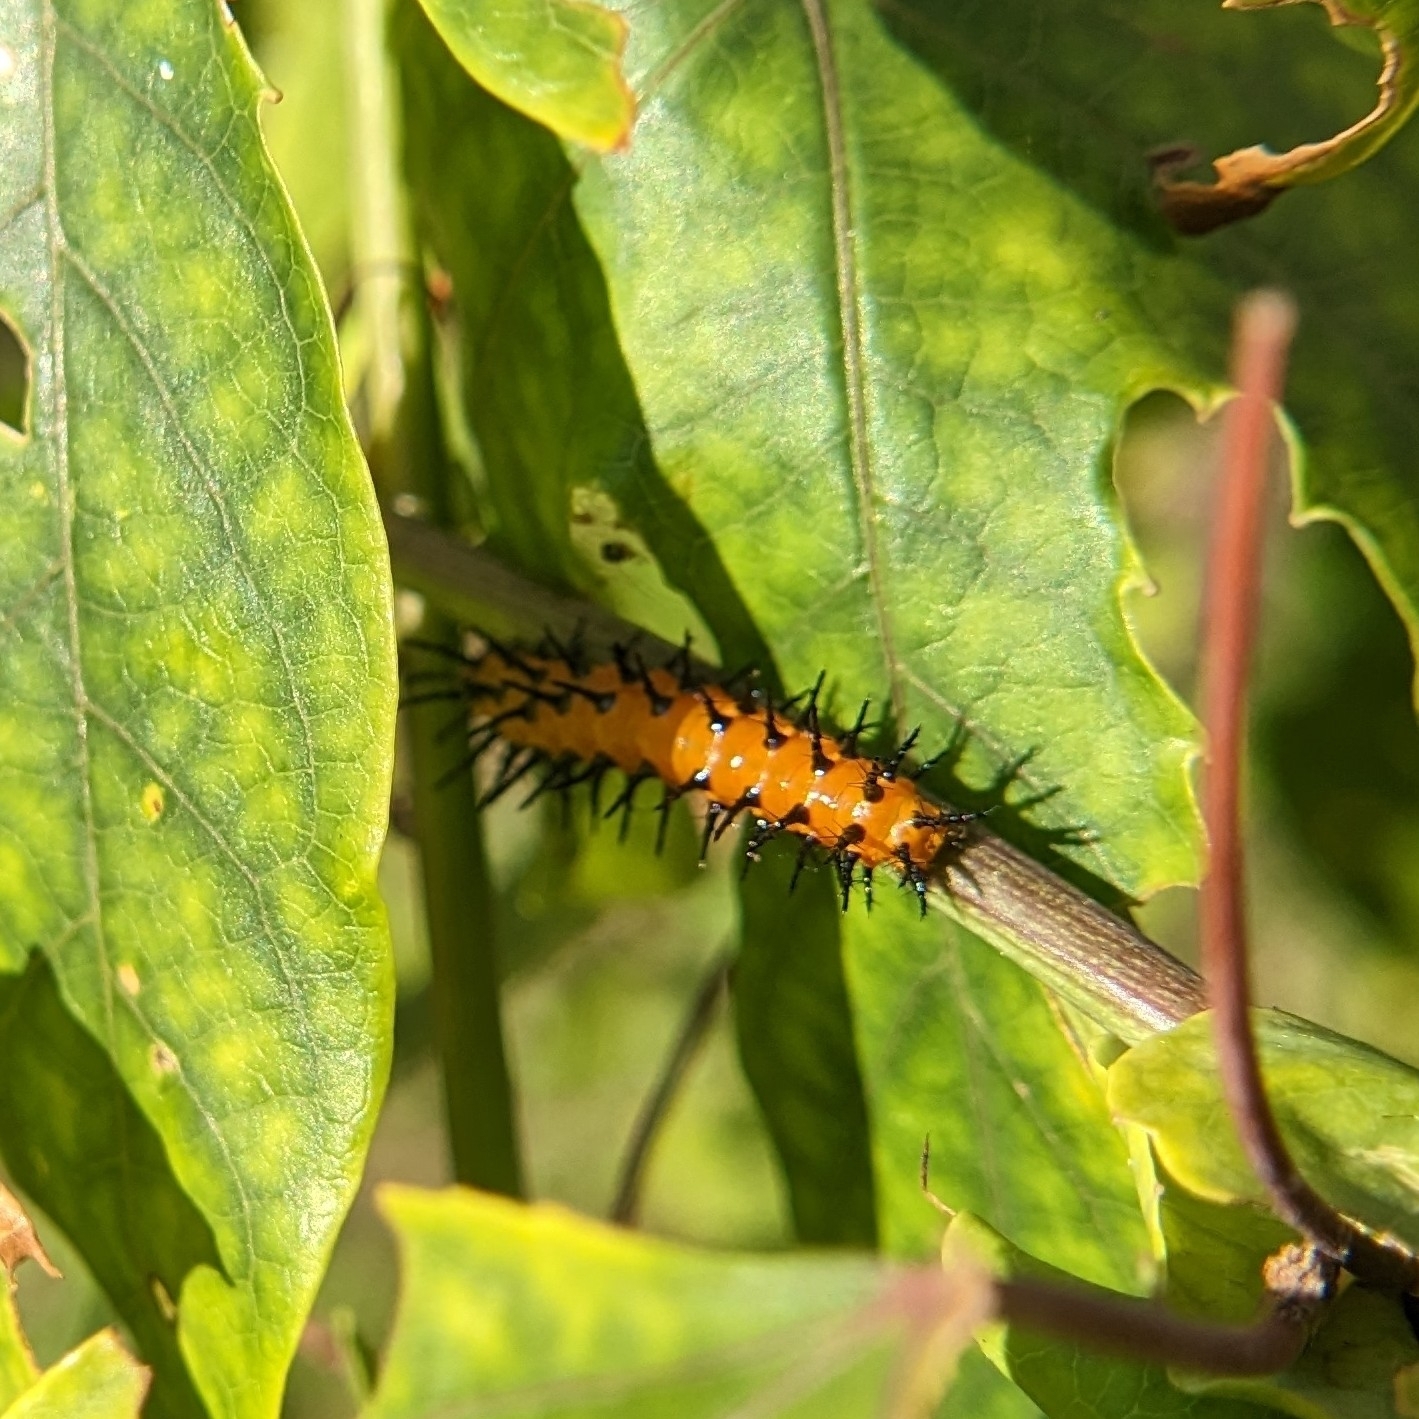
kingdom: Animalia
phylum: Arthropoda
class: Insecta
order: Lepidoptera
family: Nymphalidae
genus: Dione
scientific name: Dione vanillae
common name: Gulf fritillary
